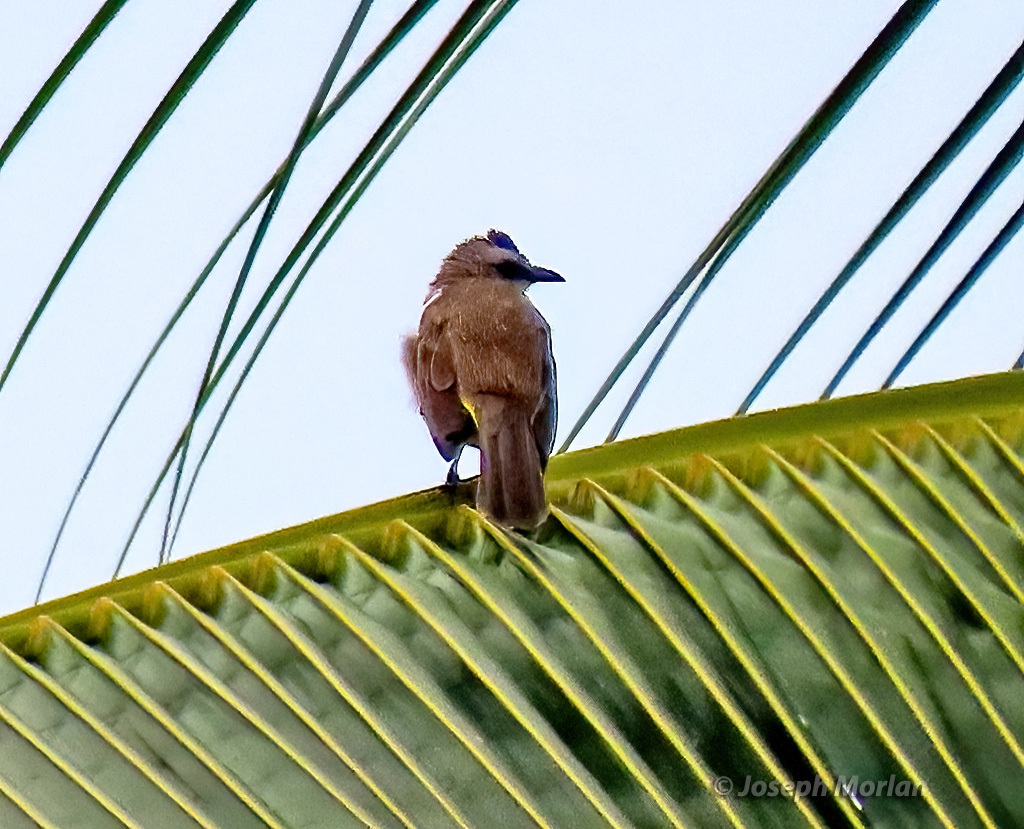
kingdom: Animalia
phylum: Chordata
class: Aves
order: Passeriformes
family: Pycnonotidae
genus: Pycnonotus
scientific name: Pycnonotus goiavier
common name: Yellow-vented bulbul
